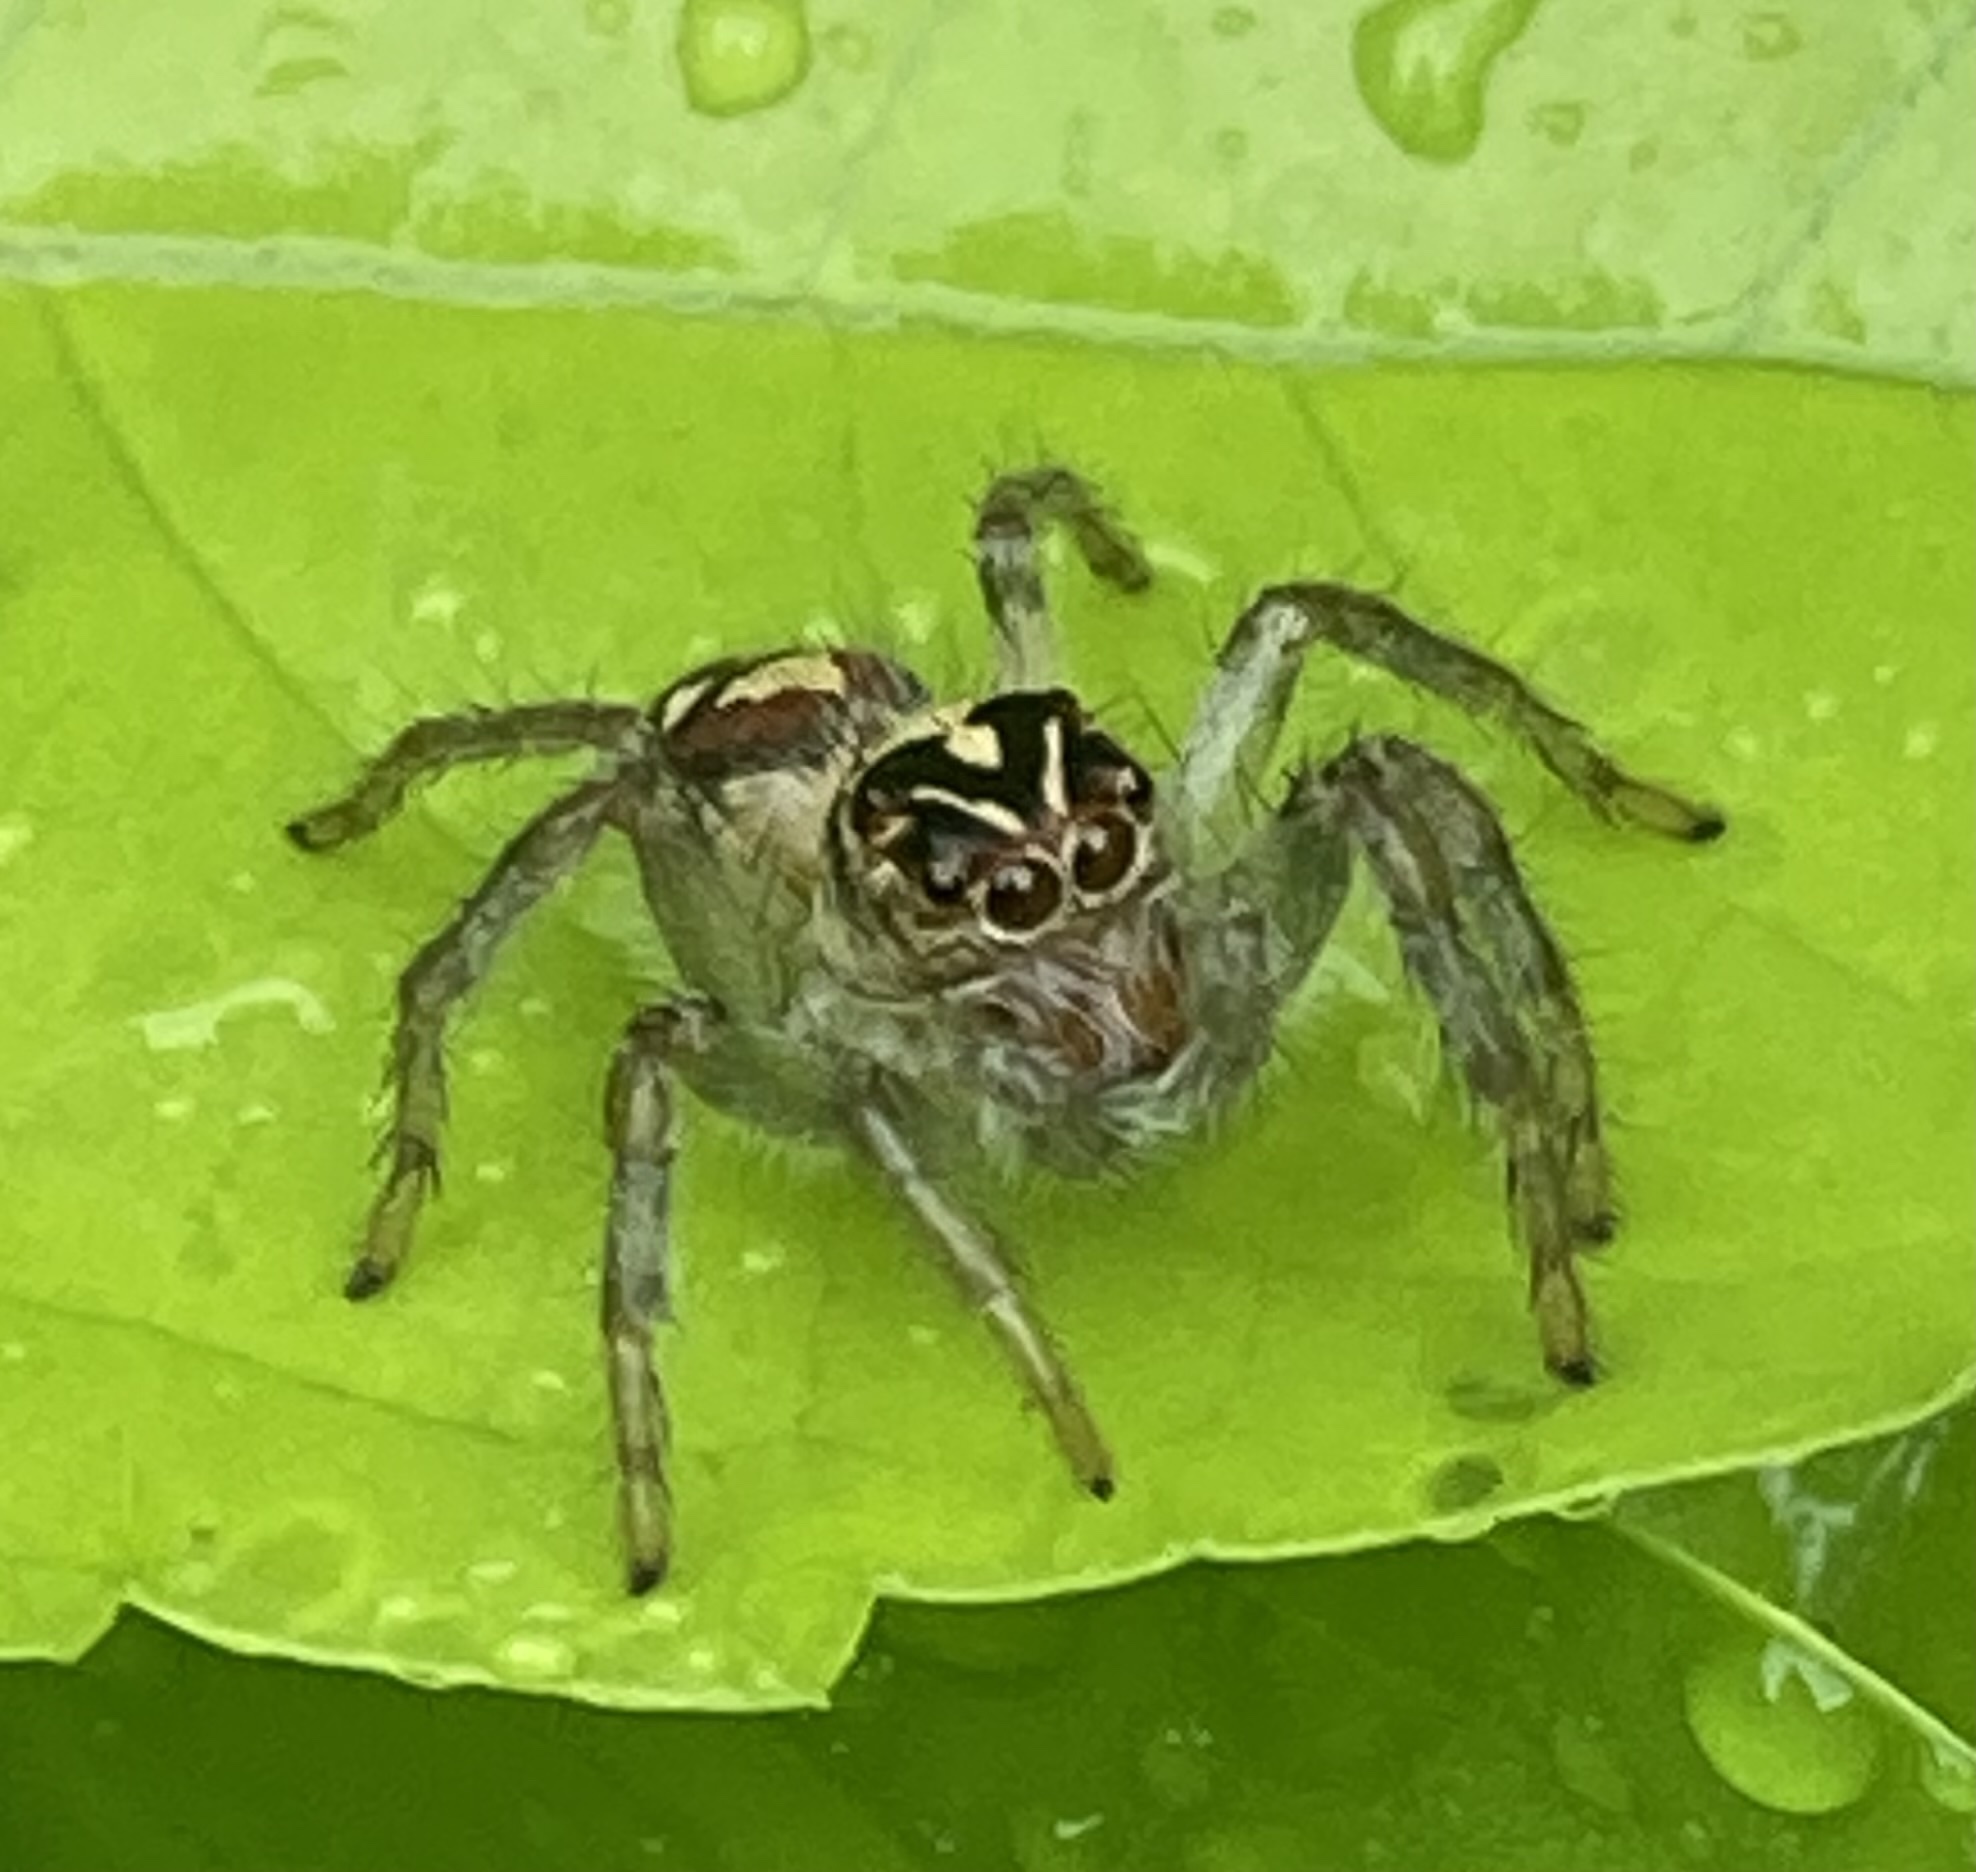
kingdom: Animalia
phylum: Arthropoda
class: Arachnida
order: Araneae
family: Salticidae
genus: Frigga
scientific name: Frigga quintensis
